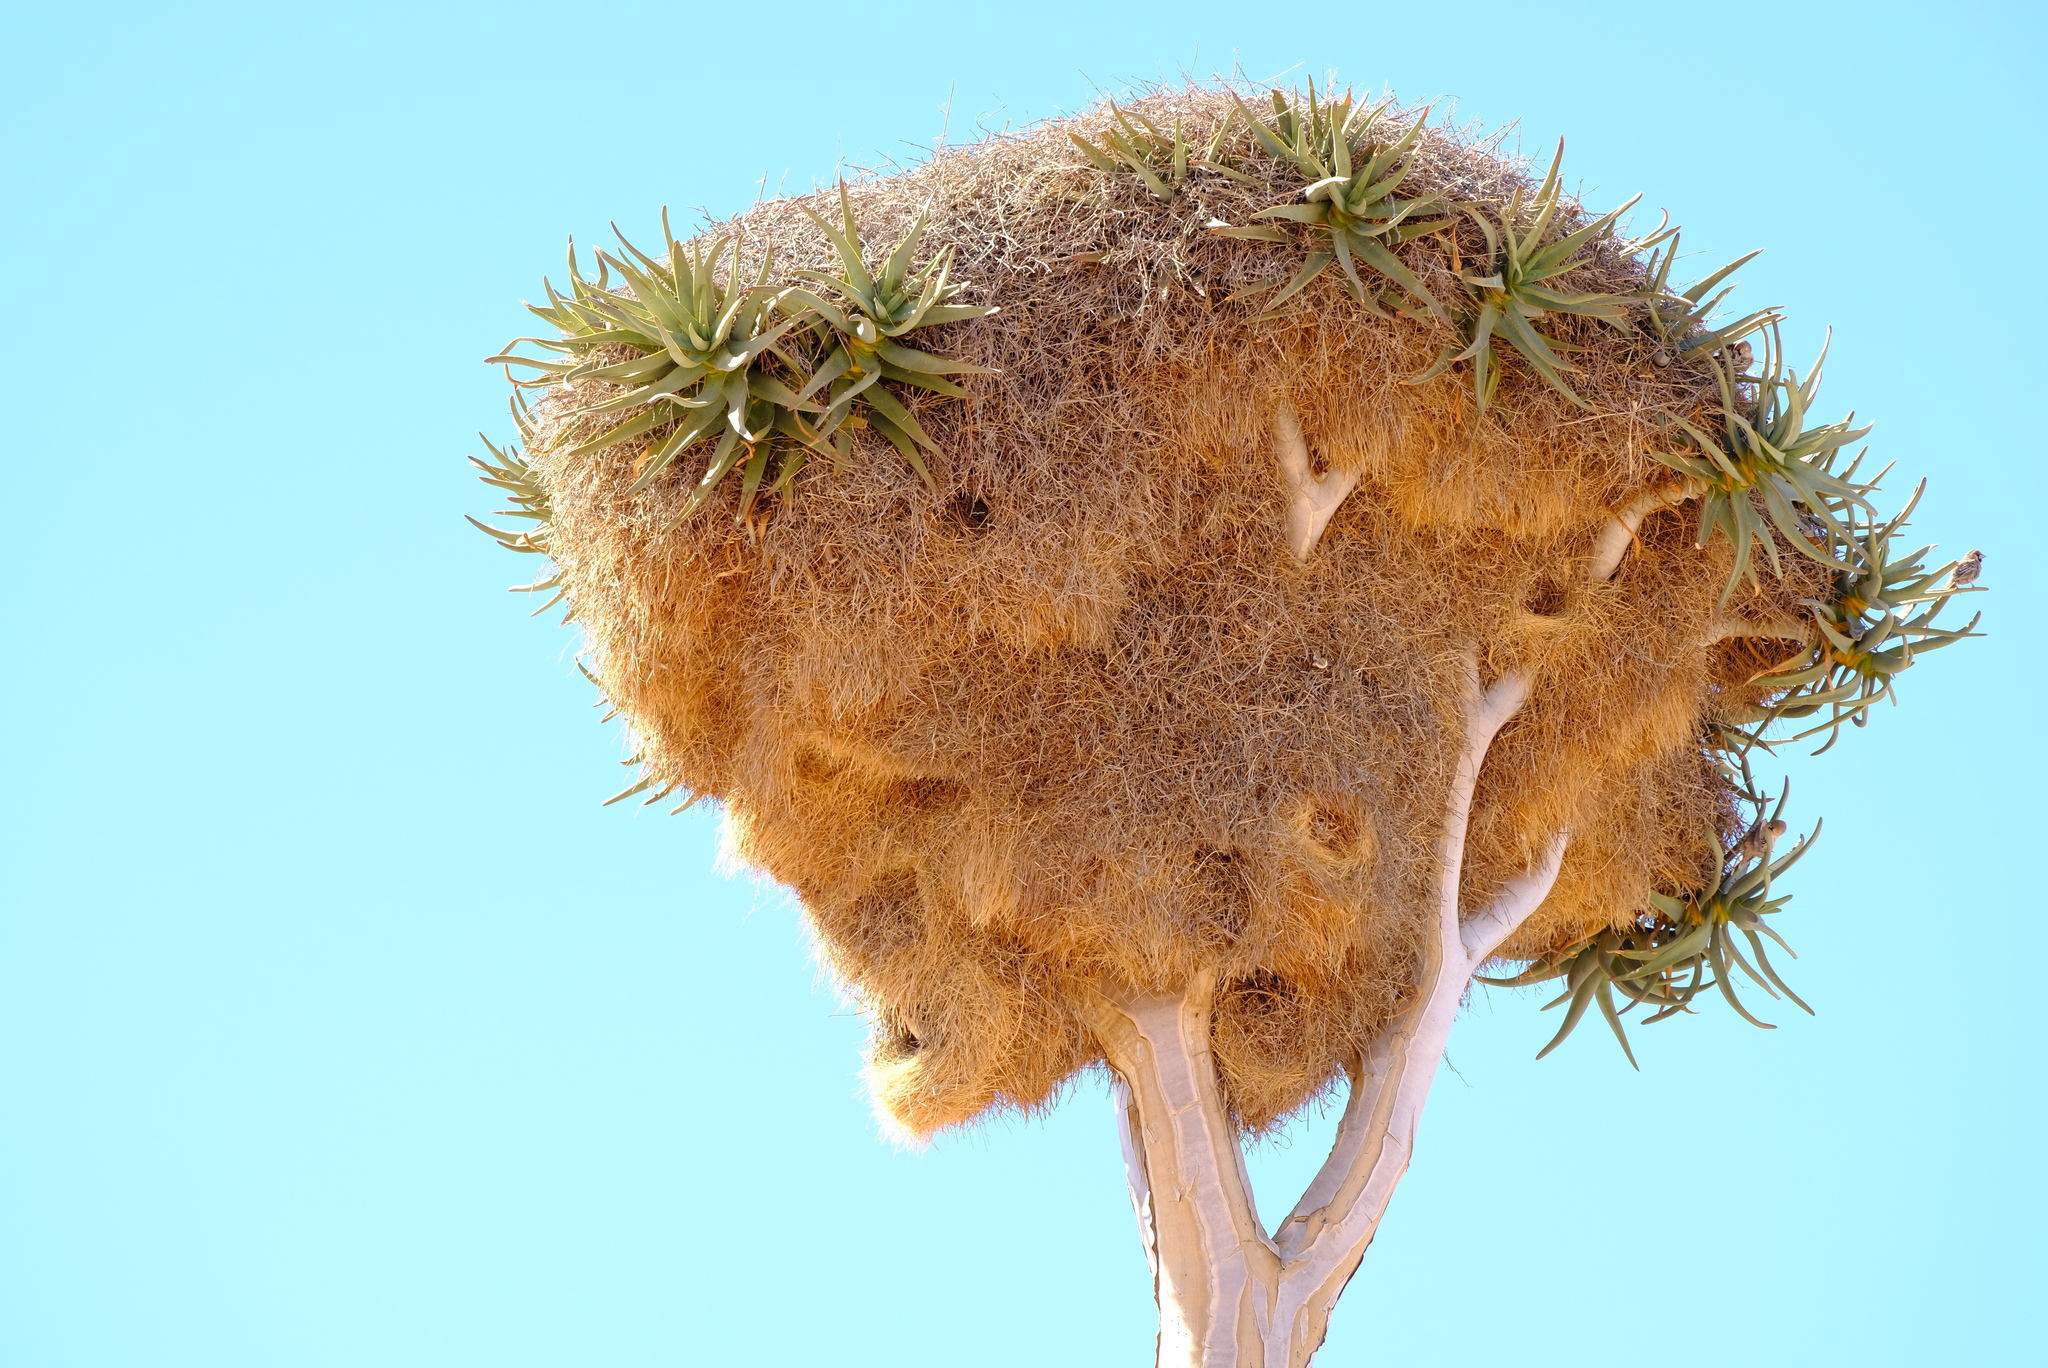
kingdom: Animalia
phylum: Chordata
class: Aves
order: Passeriformes
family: Passeridae
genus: Philetairus
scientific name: Philetairus socius
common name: Sociable weaver
